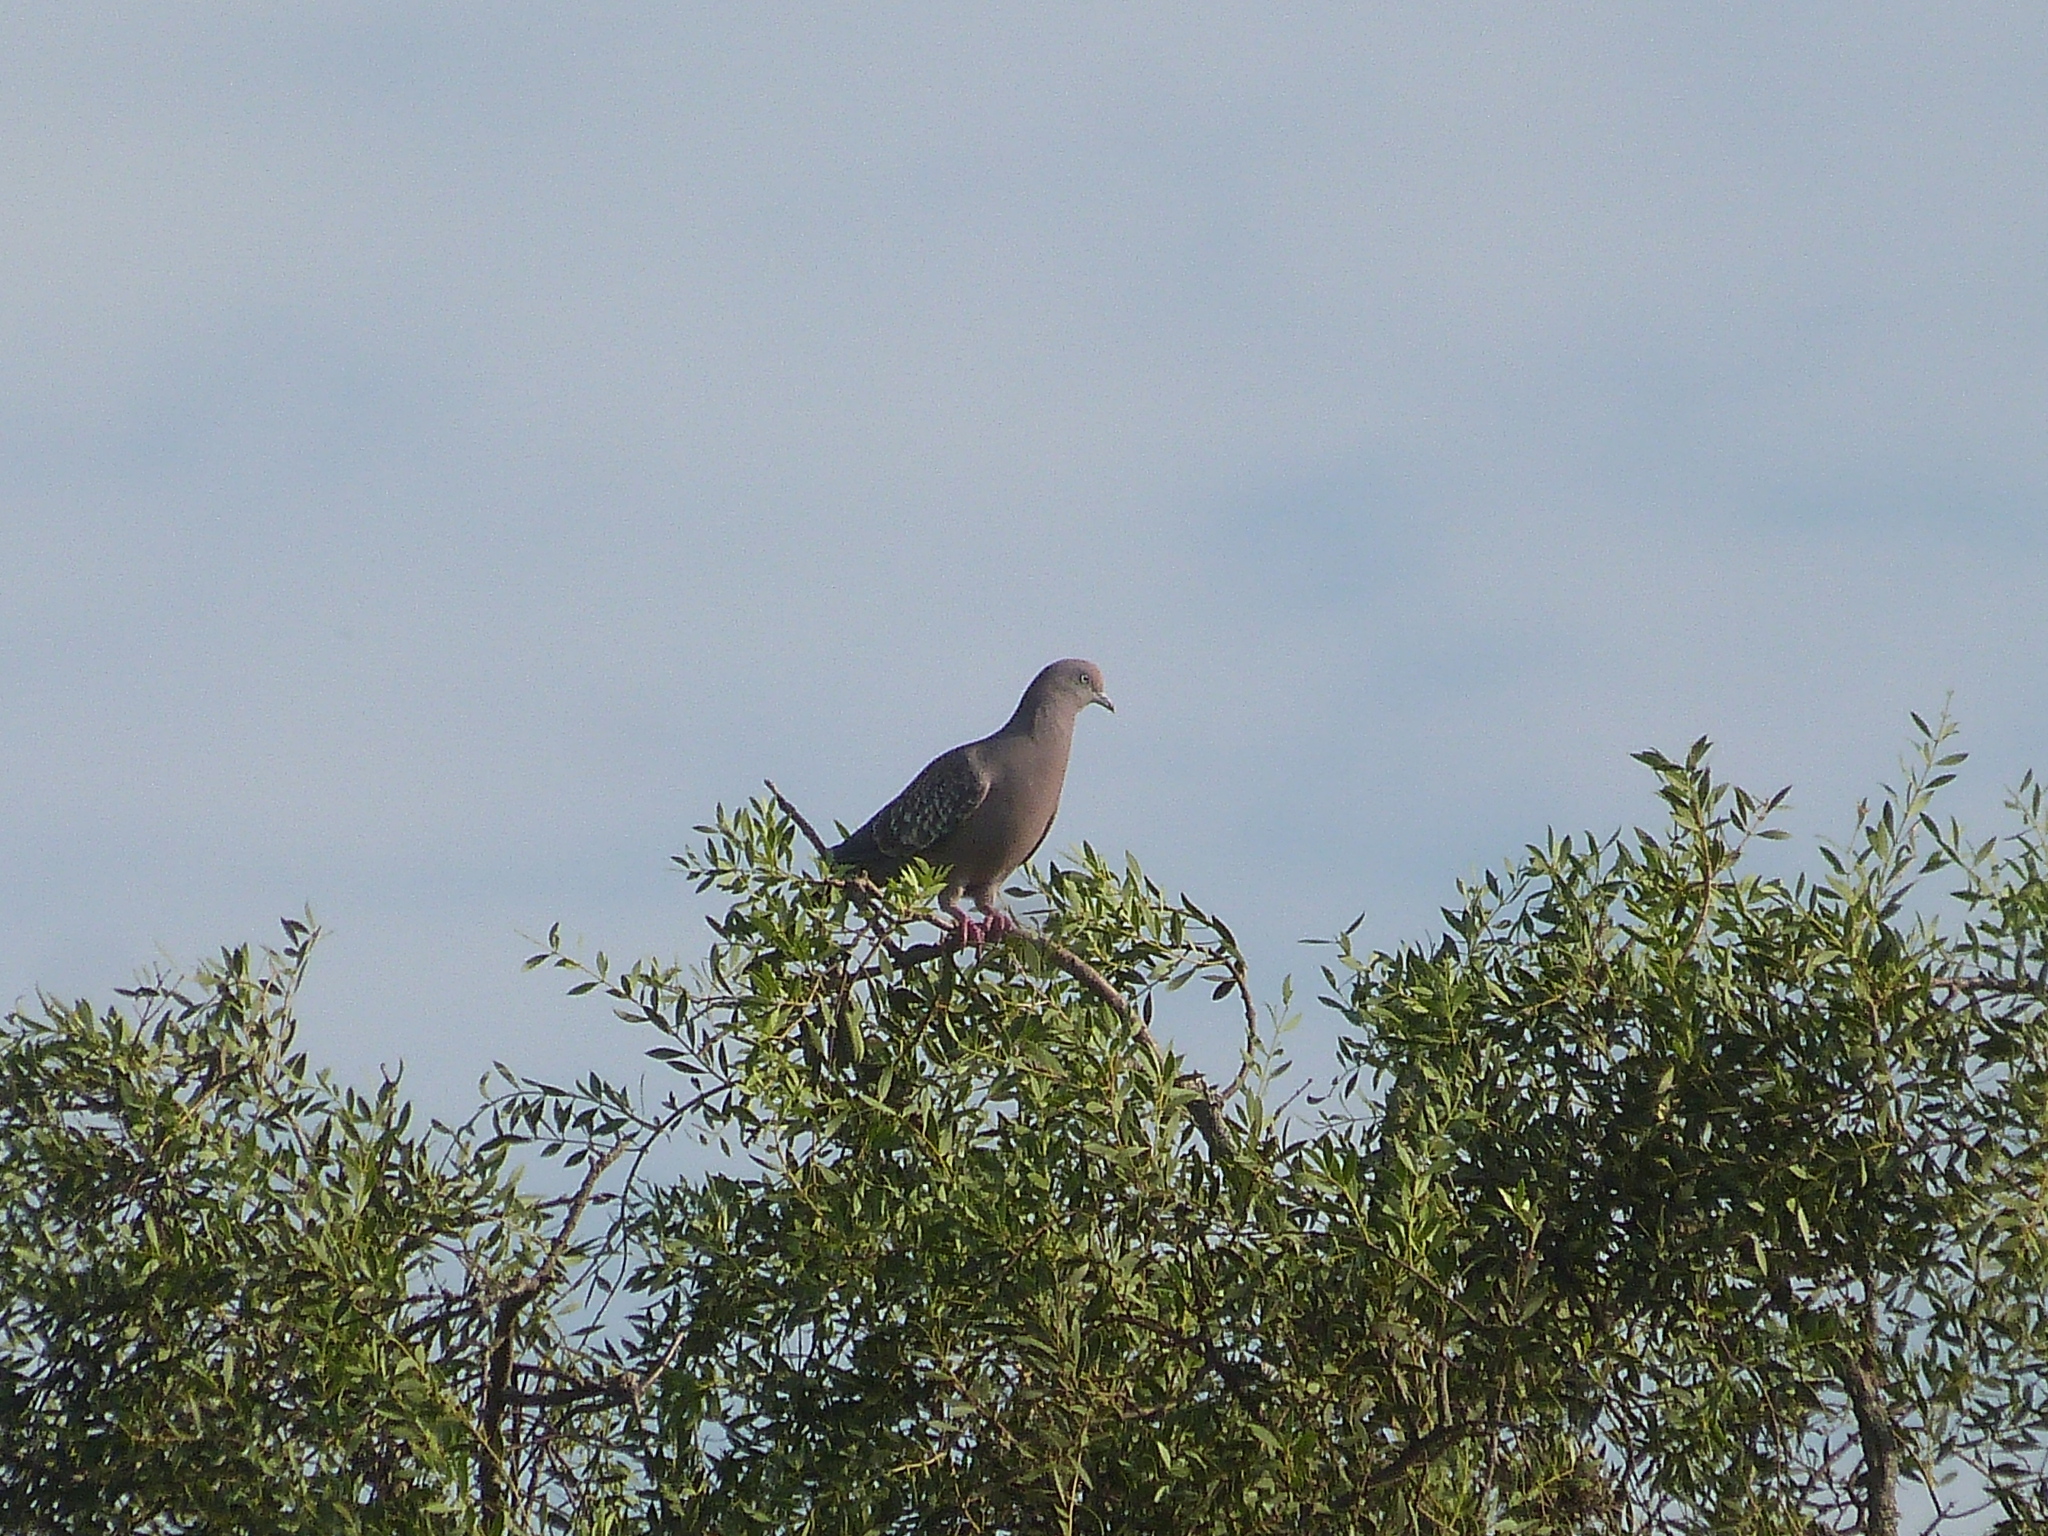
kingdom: Animalia
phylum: Chordata
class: Aves
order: Columbiformes
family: Columbidae
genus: Patagioenas
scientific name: Patagioenas maculosa
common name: Spot-winged pigeon
